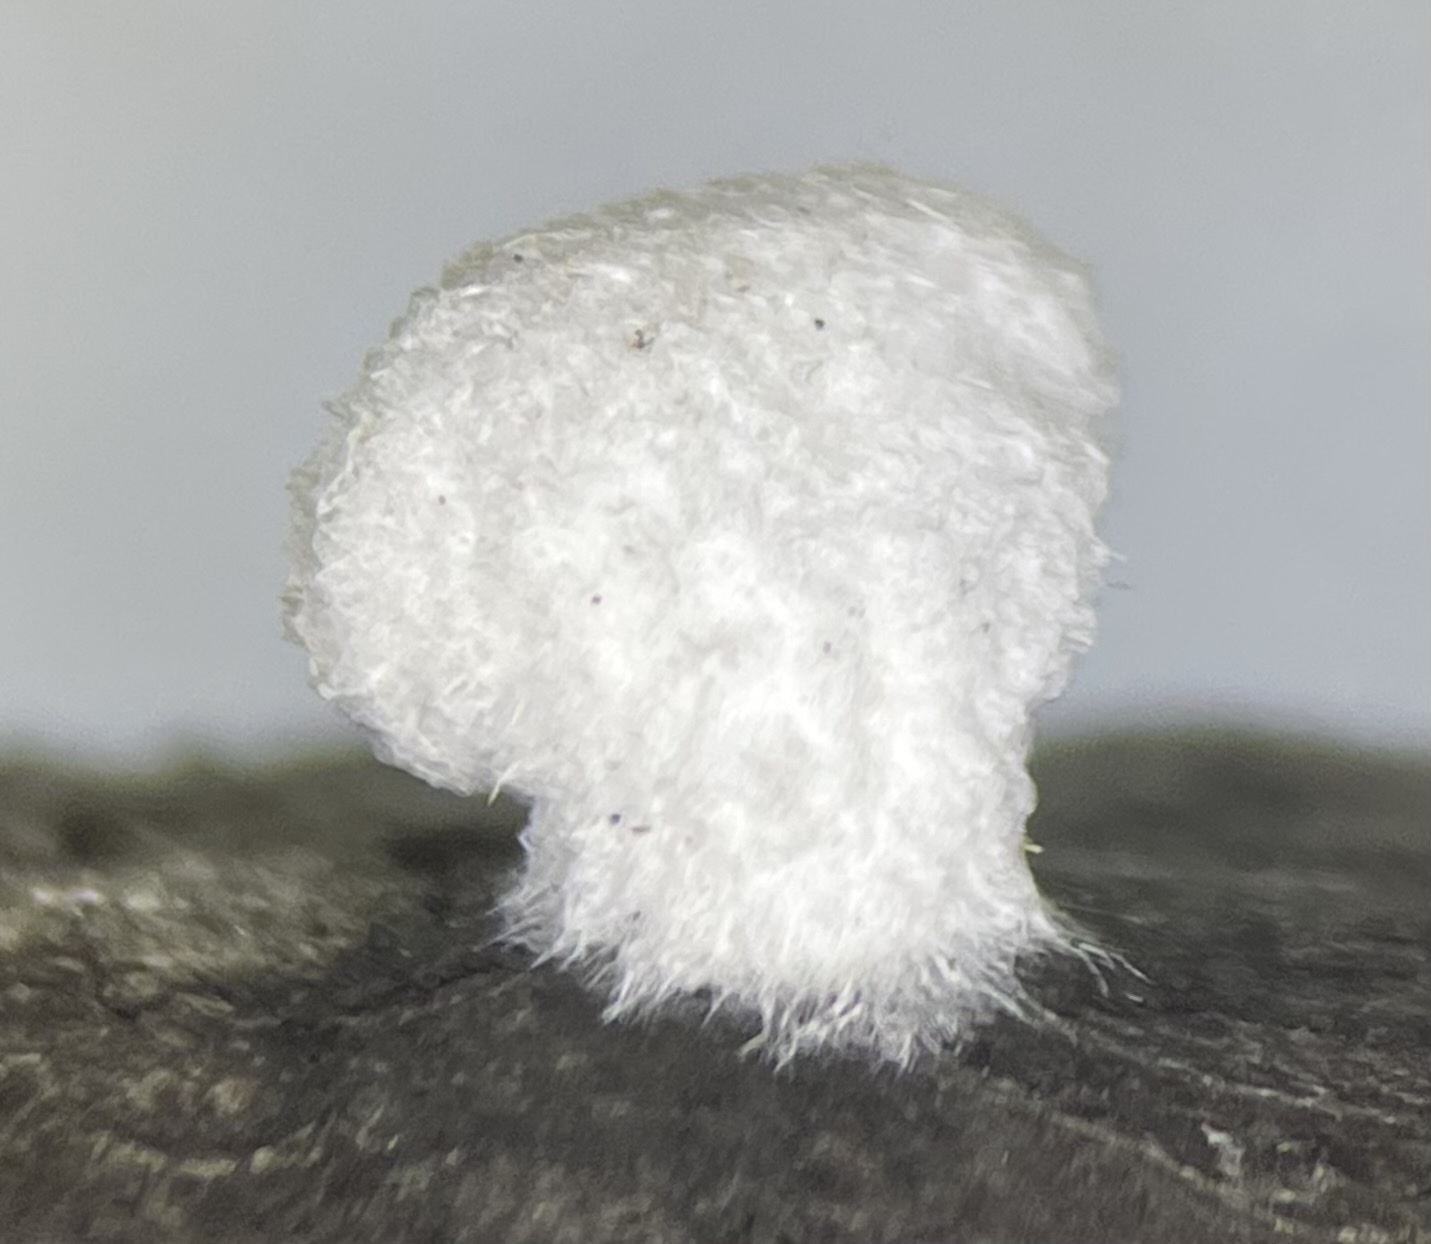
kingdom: Fungi
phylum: Basidiomycota
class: Agaricomycetes
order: Agaricales
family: Schizophyllaceae
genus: Schizophyllum
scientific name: Schizophyllum commune
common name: Common porecrust
